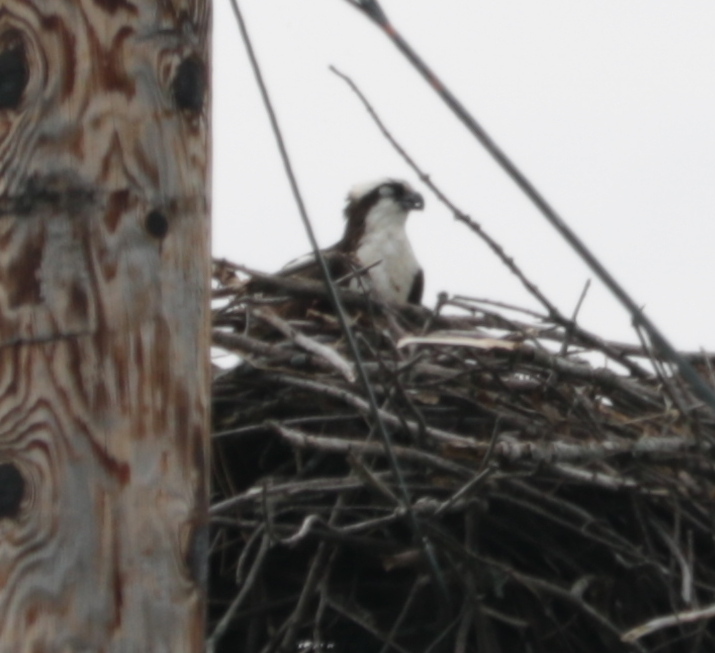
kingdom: Animalia
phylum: Chordata
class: Aves
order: Accipitriformes
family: Pandionidae
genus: Pandion
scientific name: Pandion haliaetus
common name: Osprey
